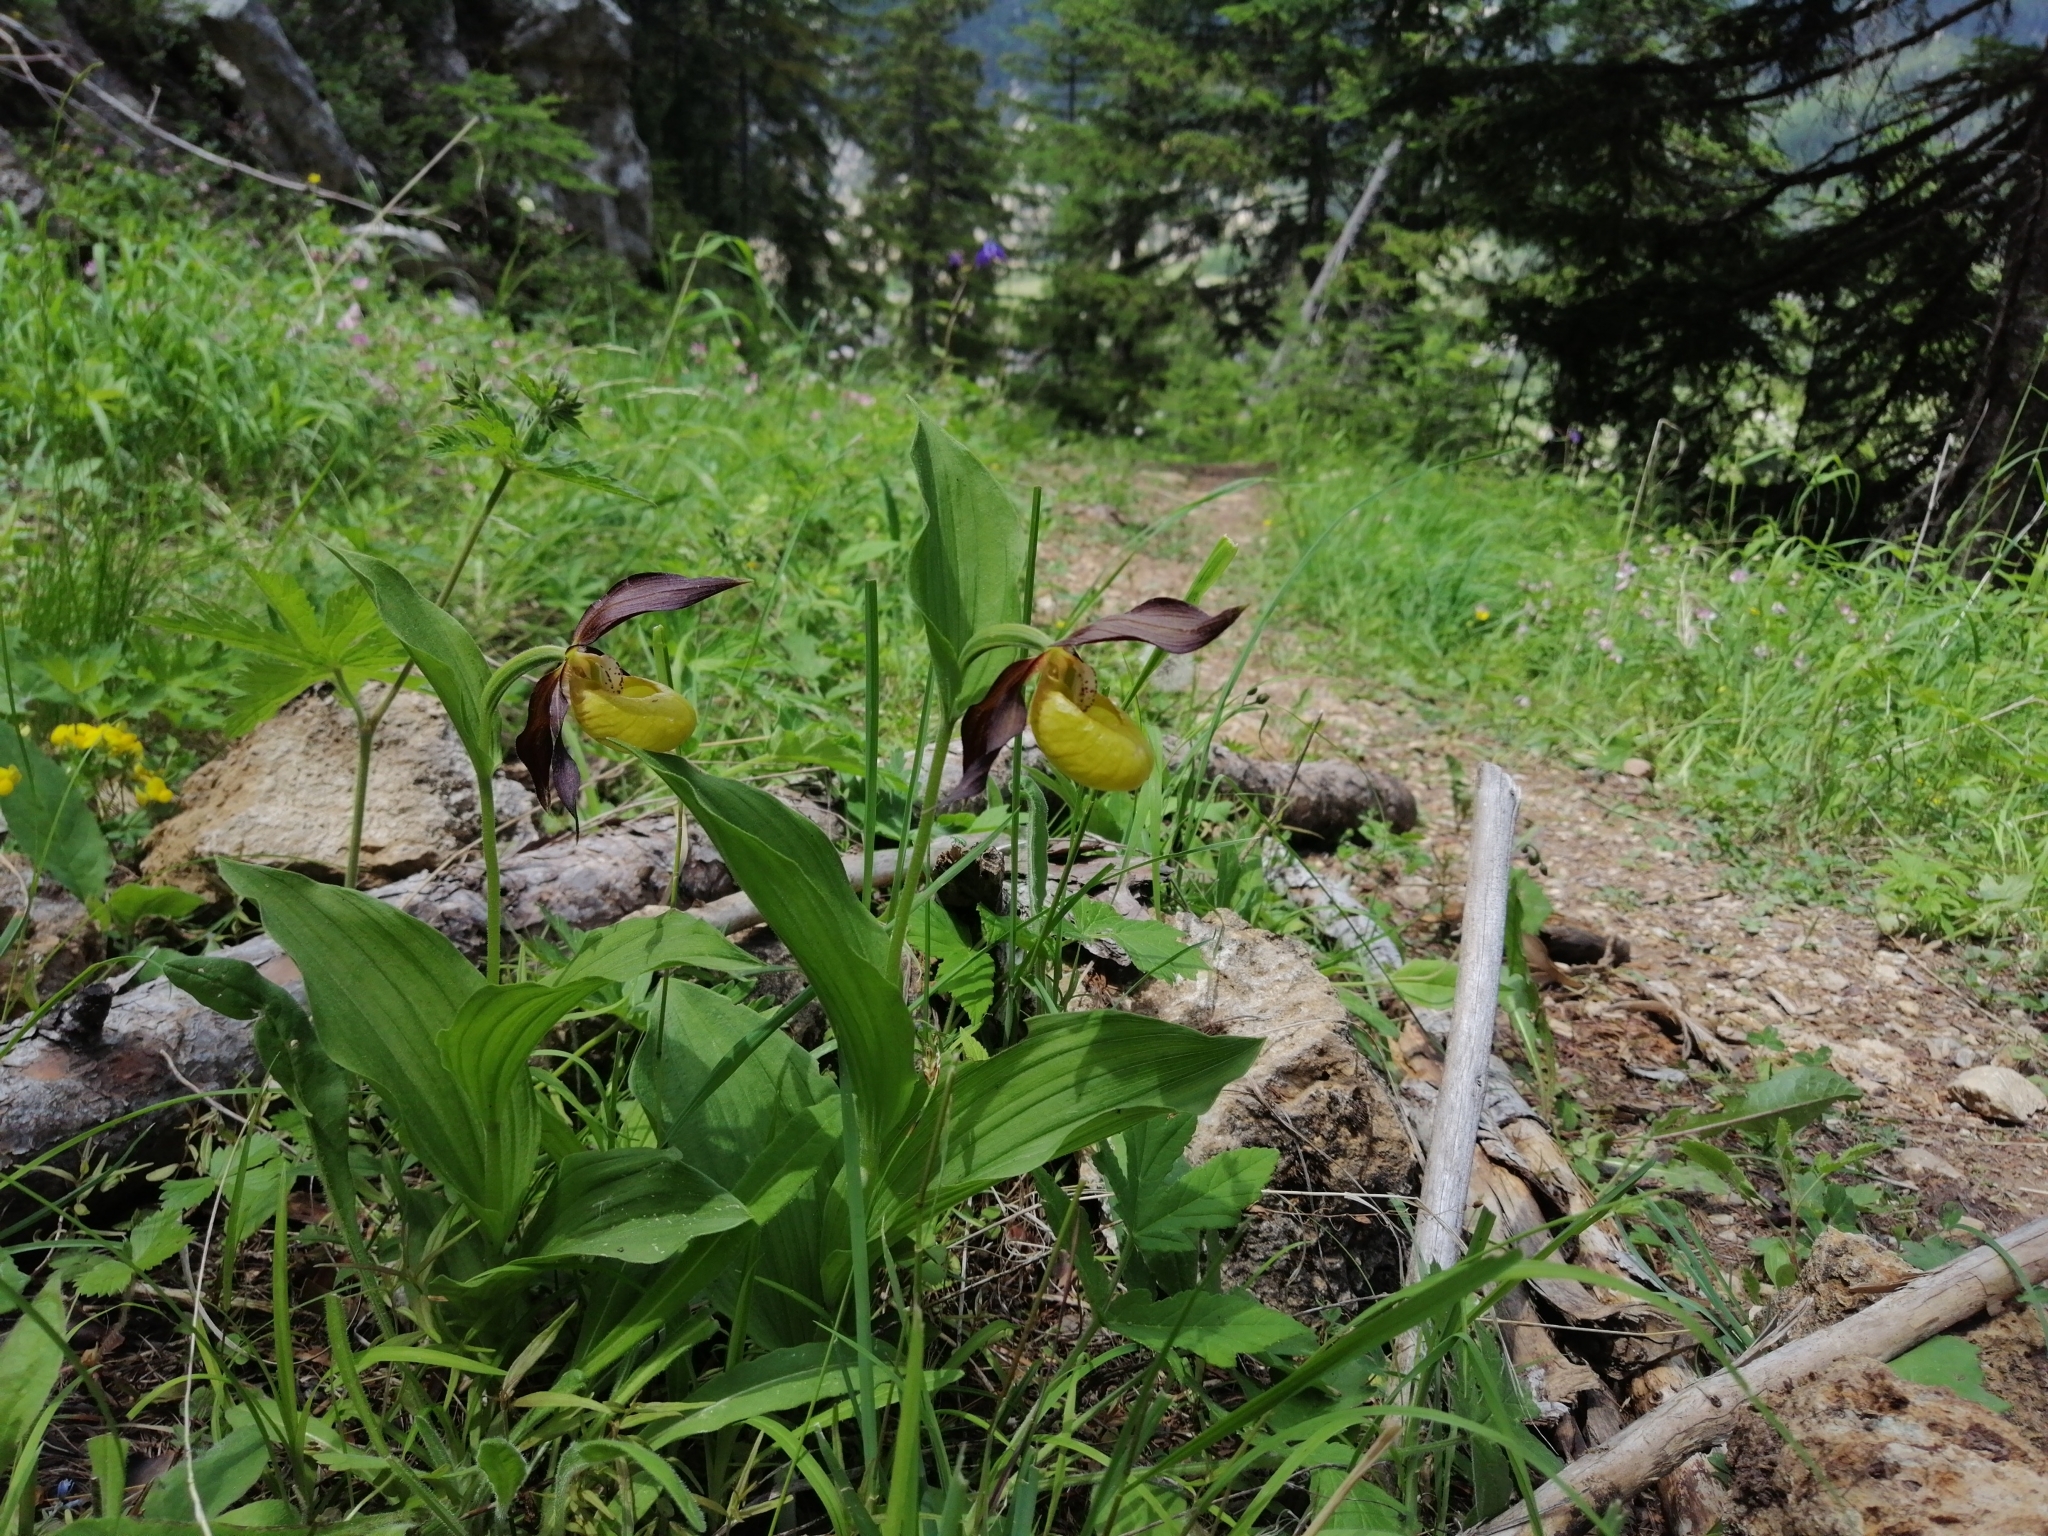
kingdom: Plantae
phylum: Tracheophyta
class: Liliopsida
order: Asparagales
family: Orchidaceae
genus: Cypripedium
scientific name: Cypripedium calceolus
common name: Lady's-slipper
